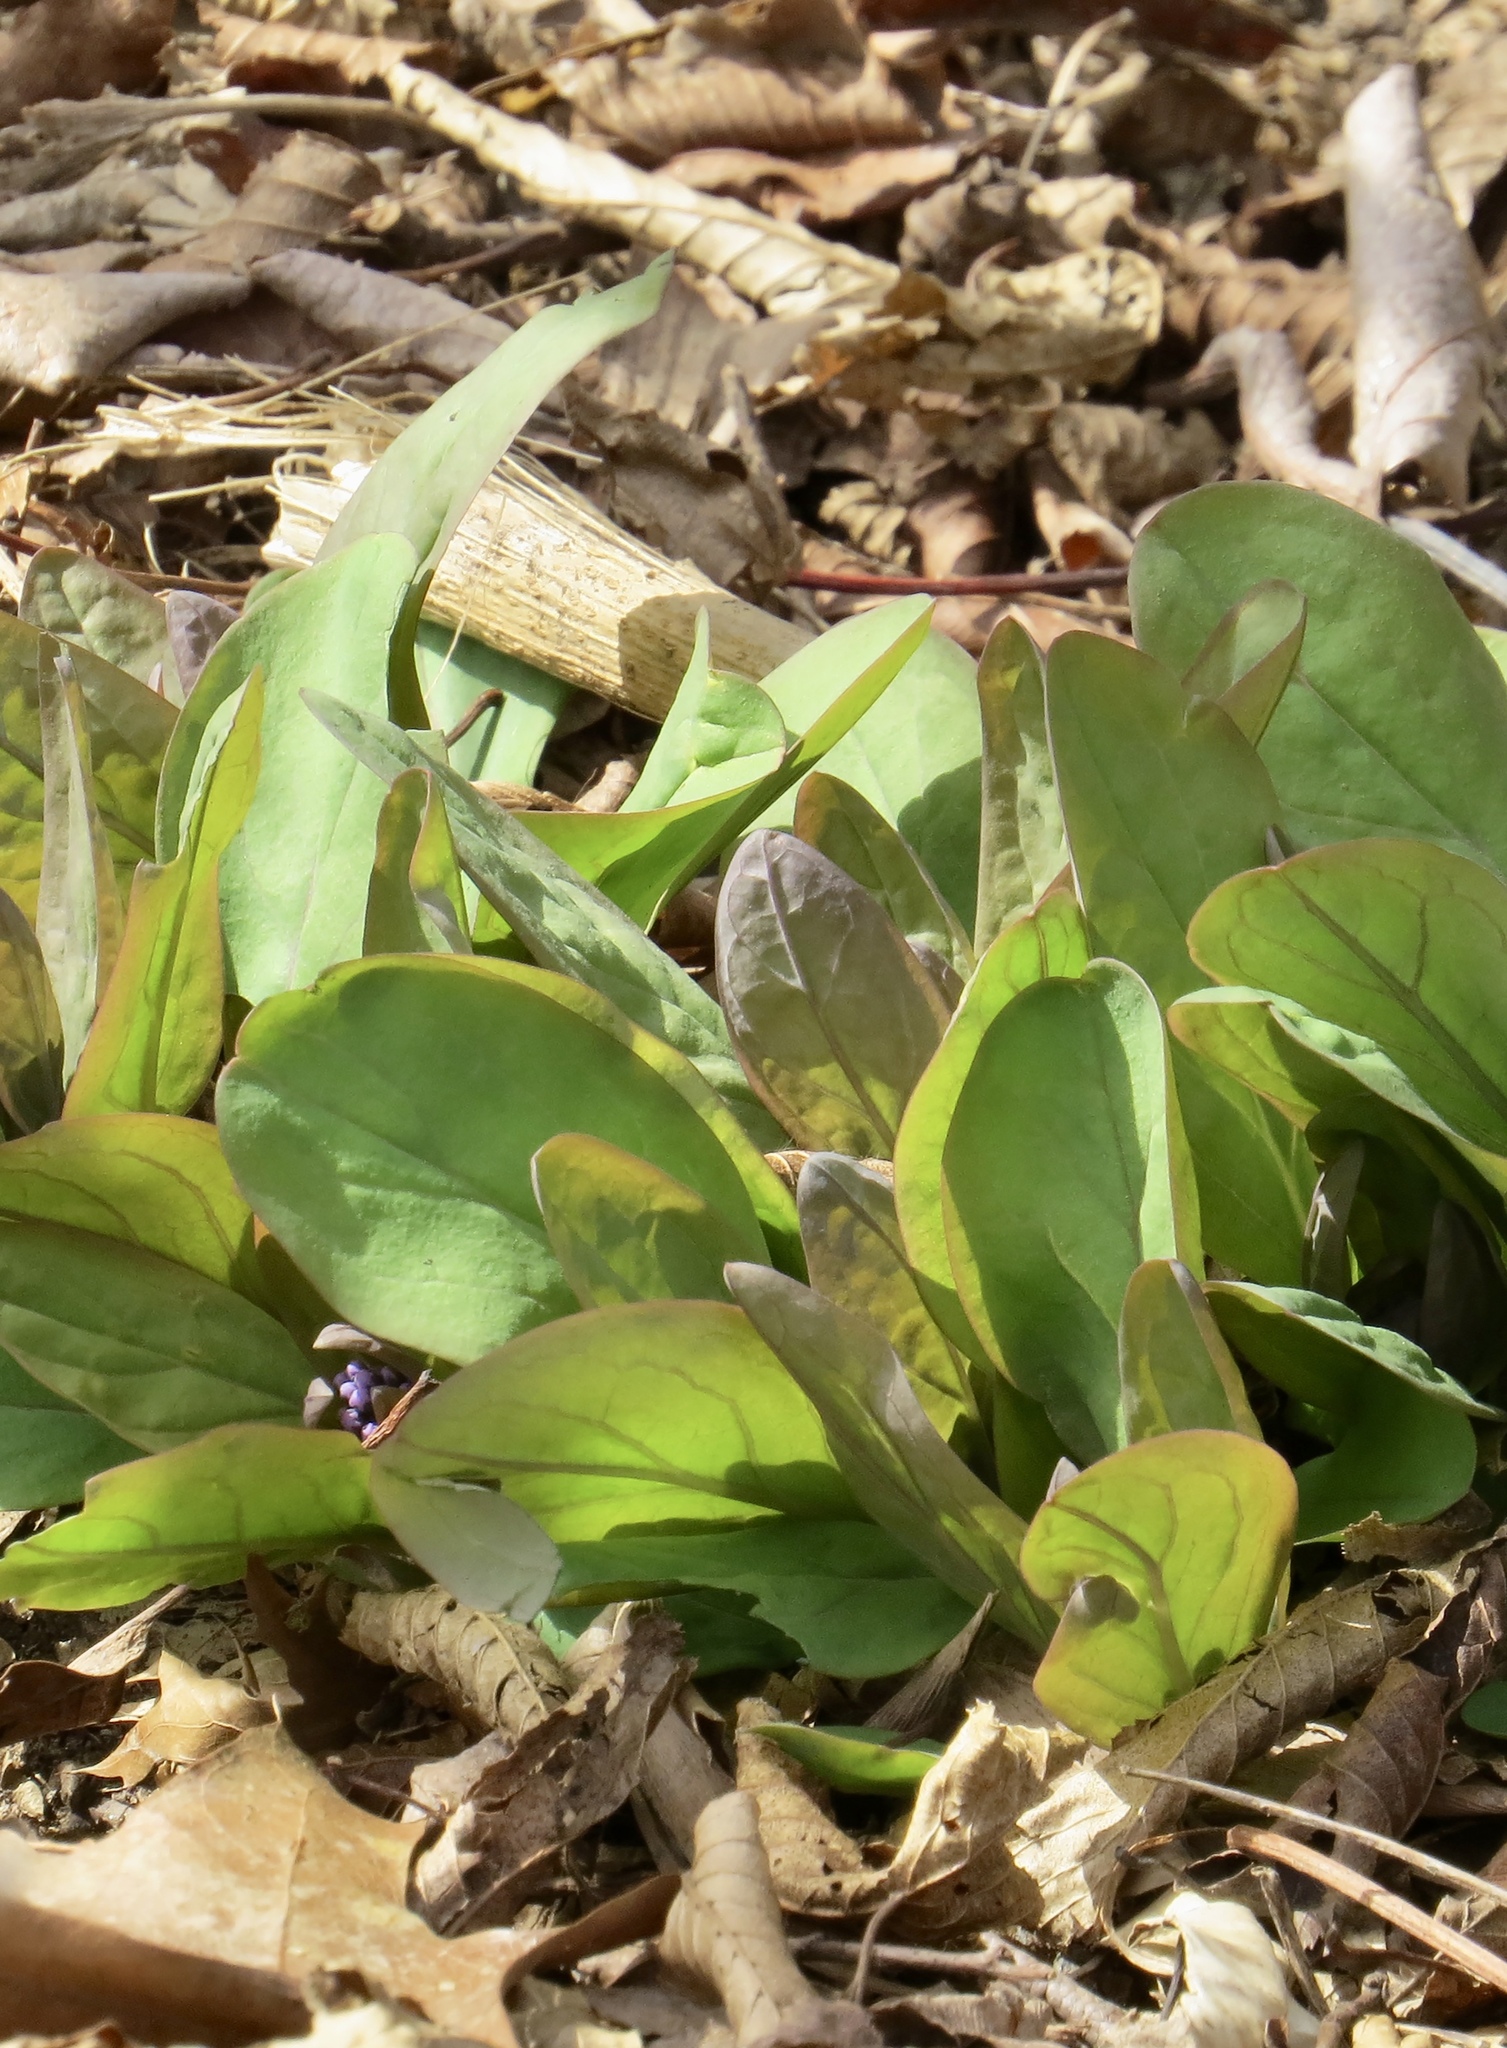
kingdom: Plantae
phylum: Tracheophyta
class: Magnoliopsida
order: Boraginales
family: Boraginaceae
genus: Mertensia
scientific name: Mertensia virginica
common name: Virginia bluebells
